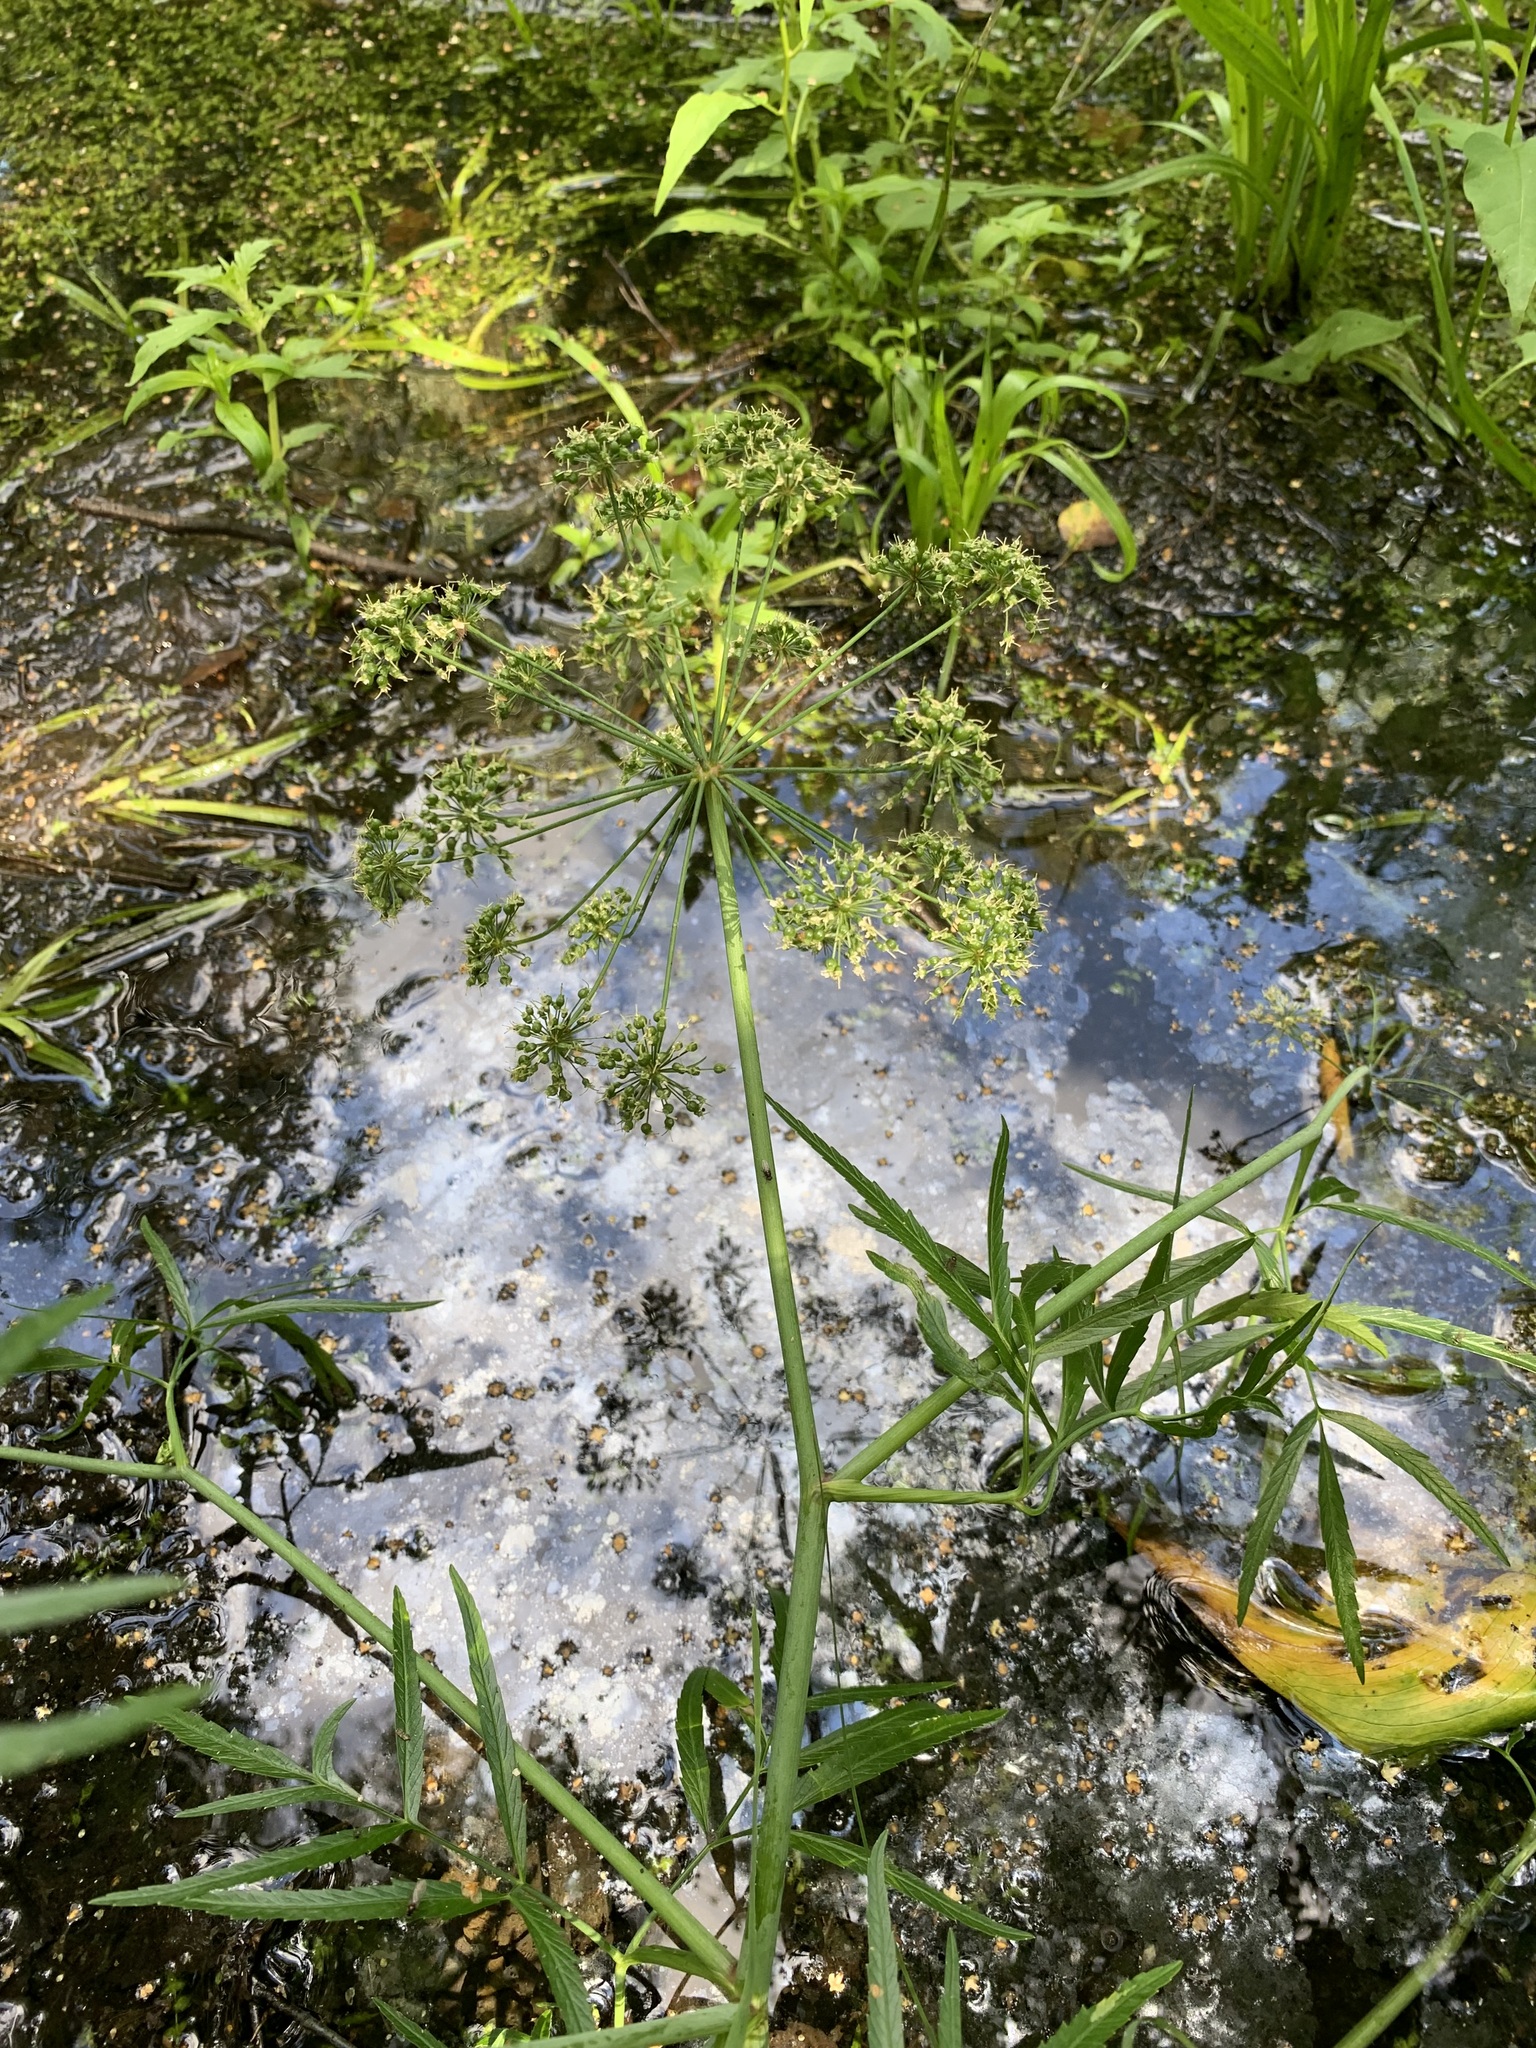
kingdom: Plantae
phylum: Tracheophyta
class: Magnoliopsida
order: Apiales
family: Apiaceae
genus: Cicuta
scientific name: Cicuta virosa
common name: Cowbane
